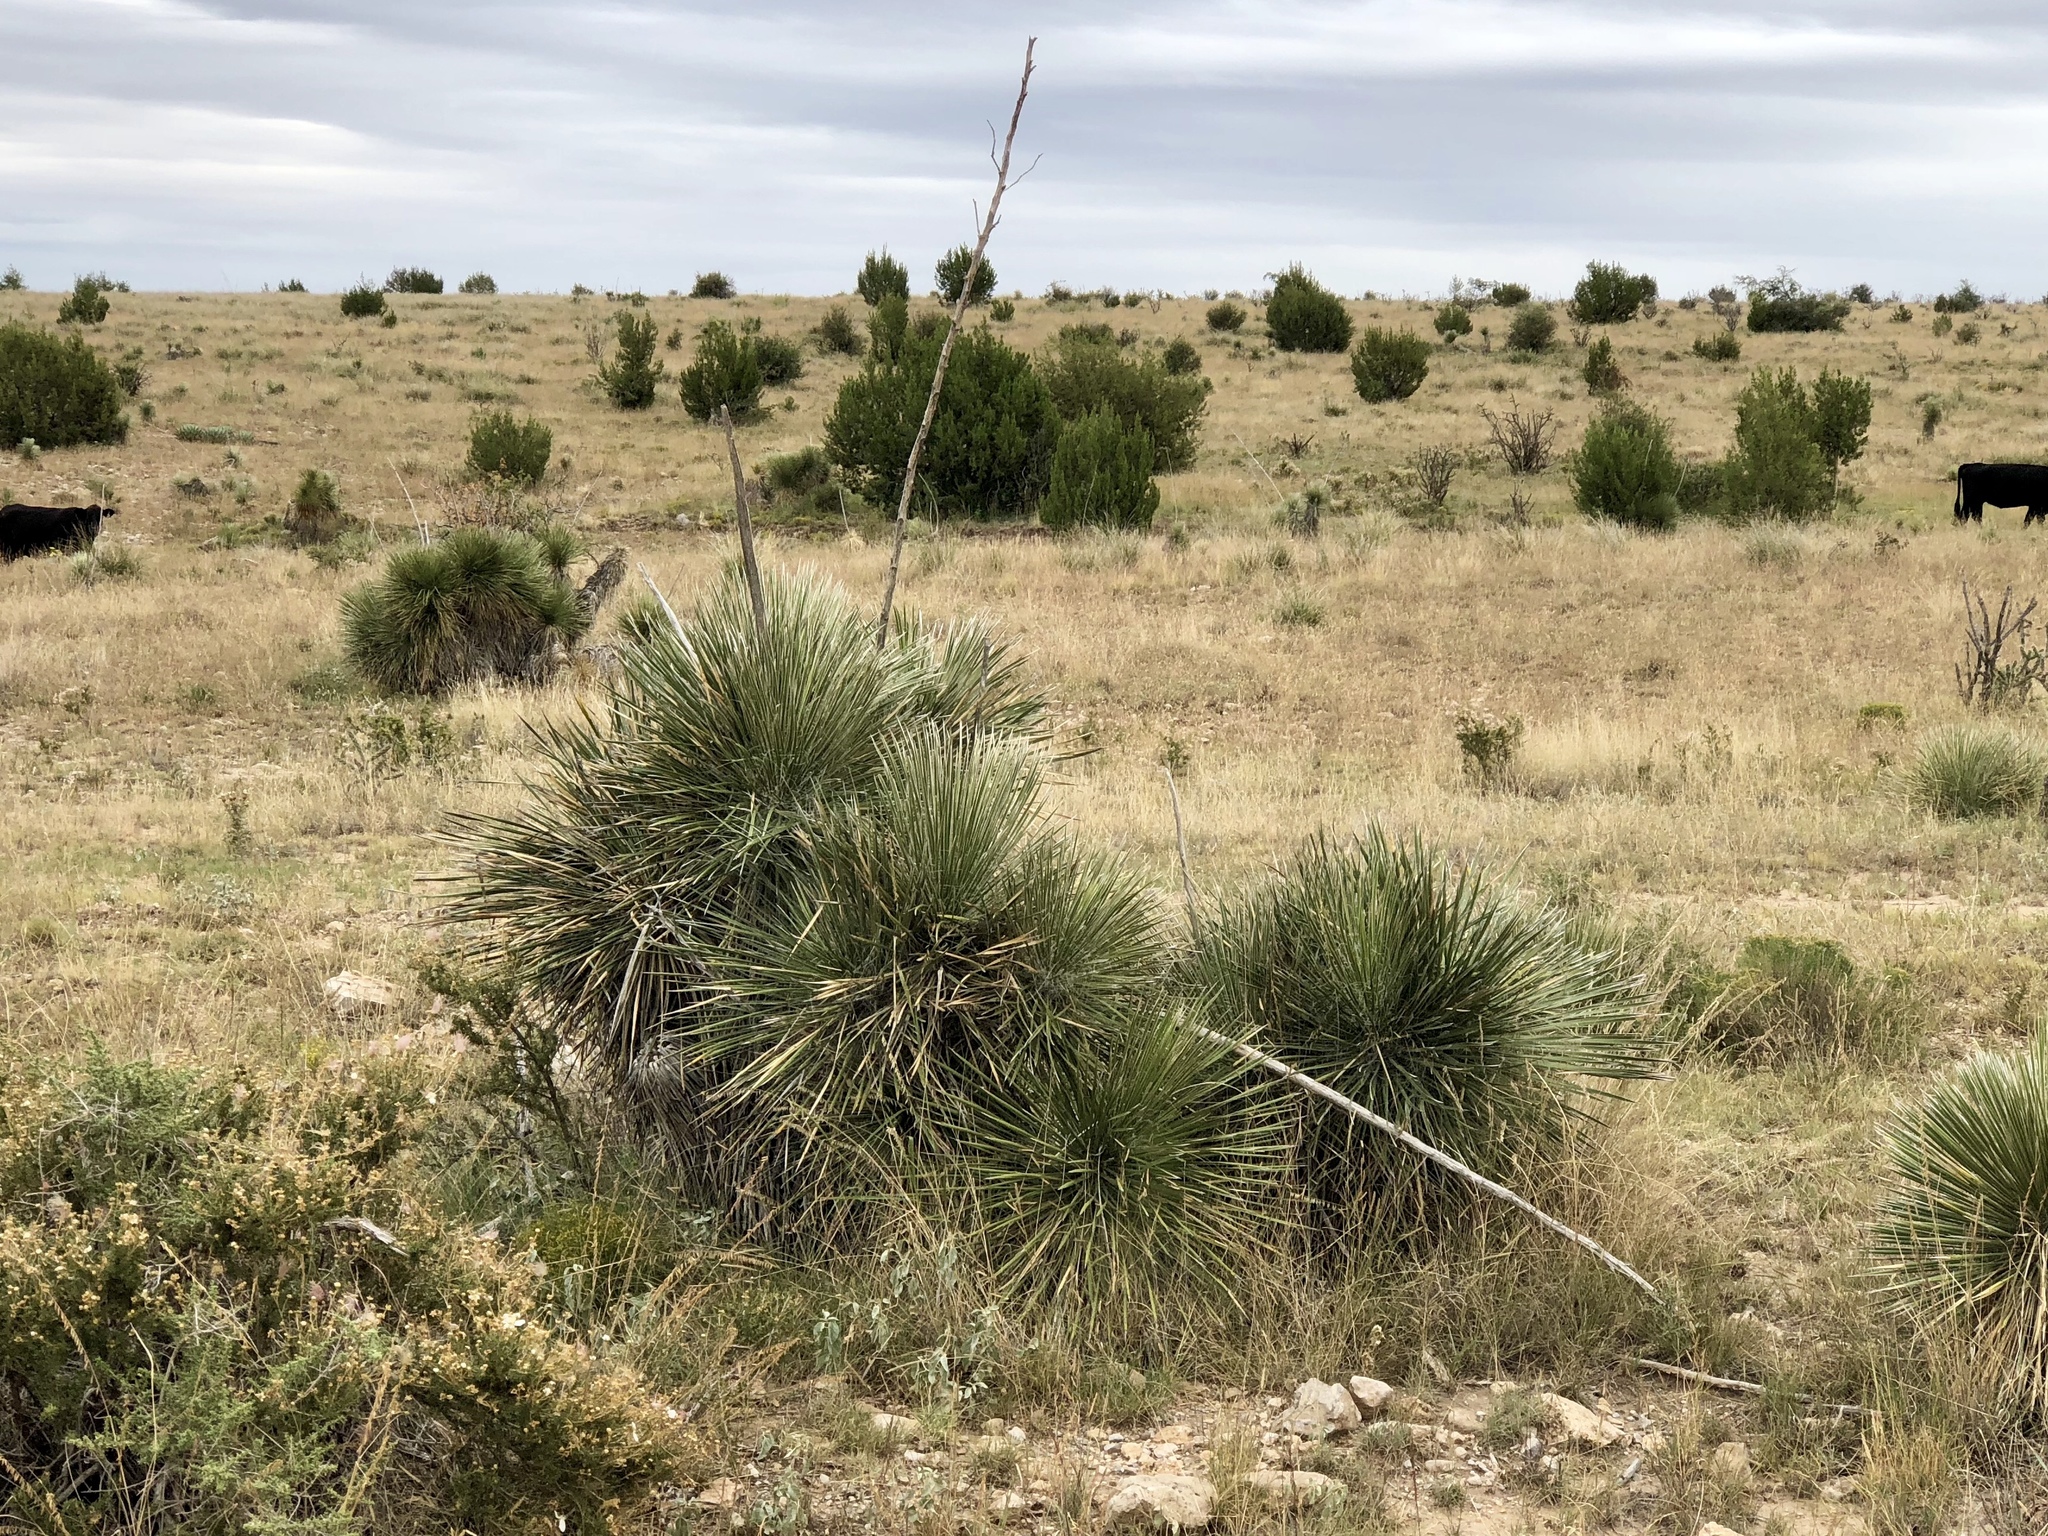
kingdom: Plantae
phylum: Tracheophyta
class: Liliopsida
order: Asparagales
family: Asparagaceae
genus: Yucca
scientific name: Yucca elata
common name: Palmella
